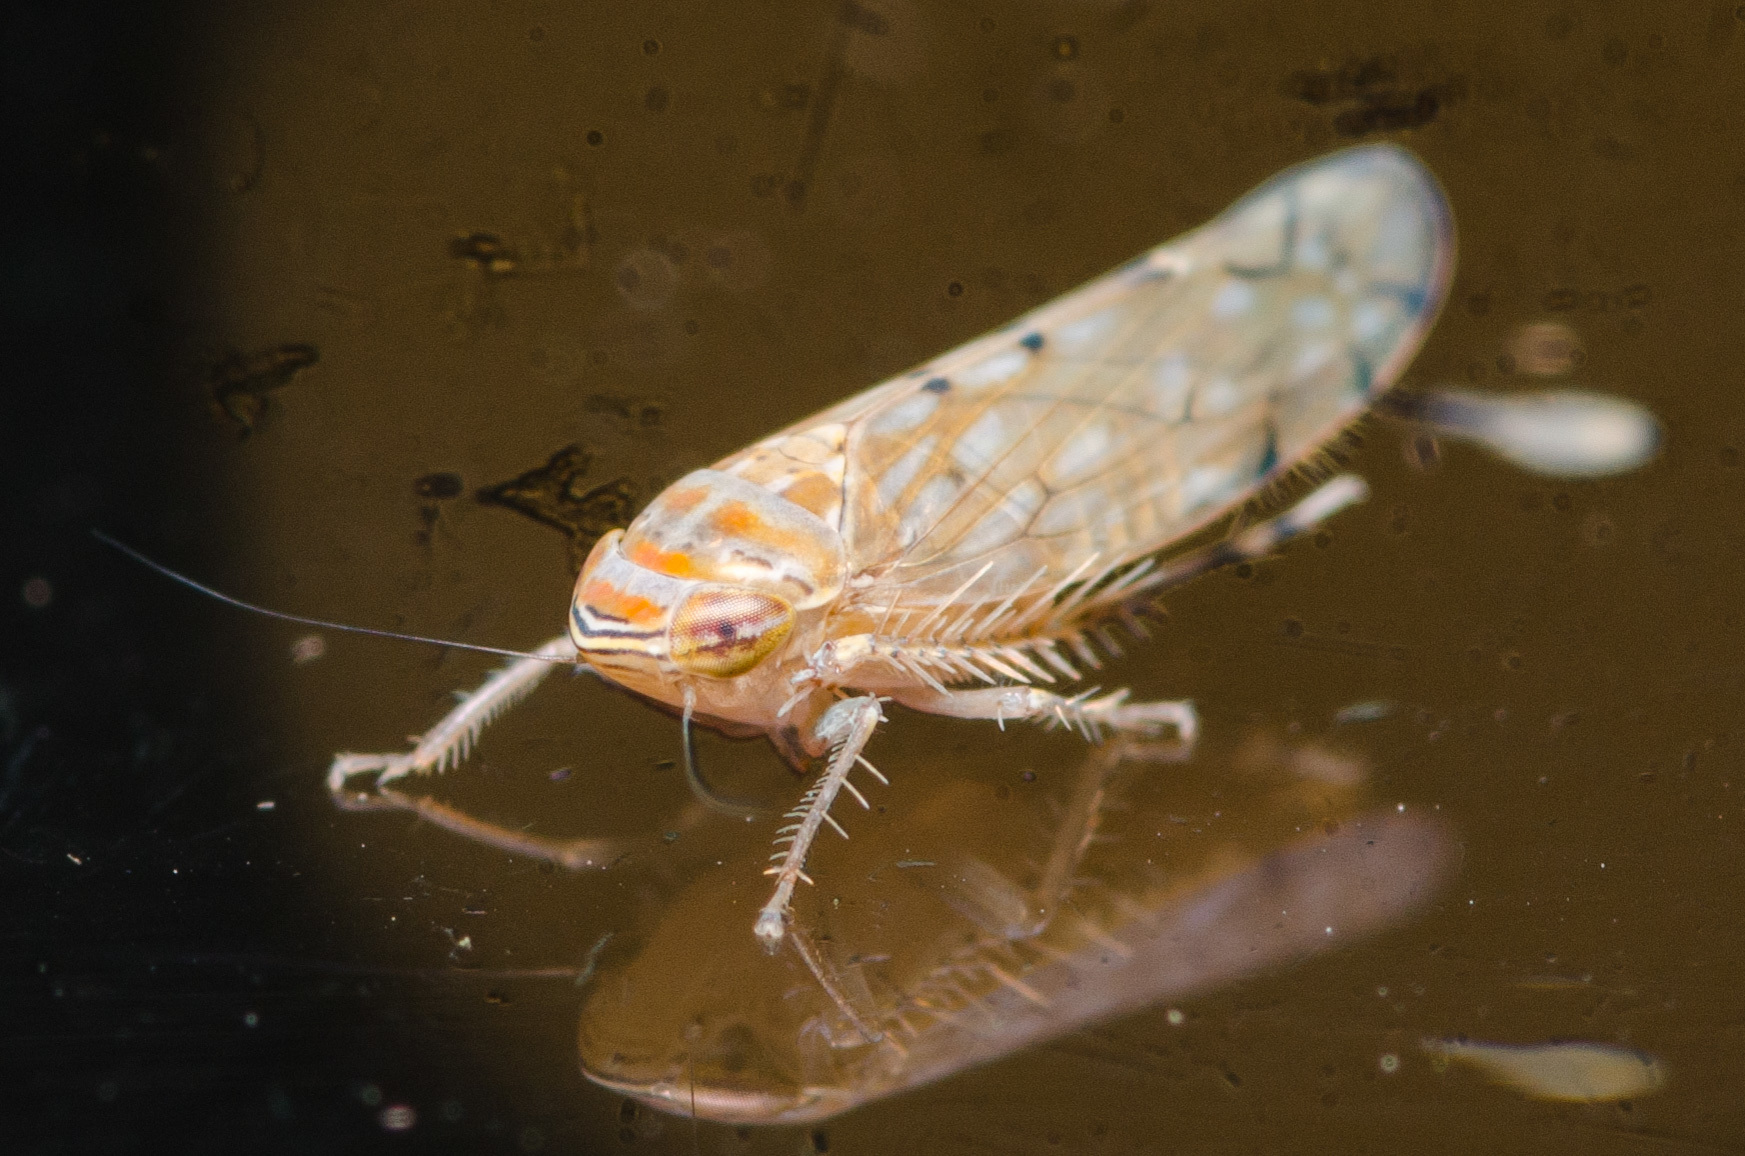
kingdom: Animalia
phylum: Arthropoda
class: Insecta
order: Hemiptera
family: Cicadellidae
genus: Osbornellus
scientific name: Osbornellus rotundus
